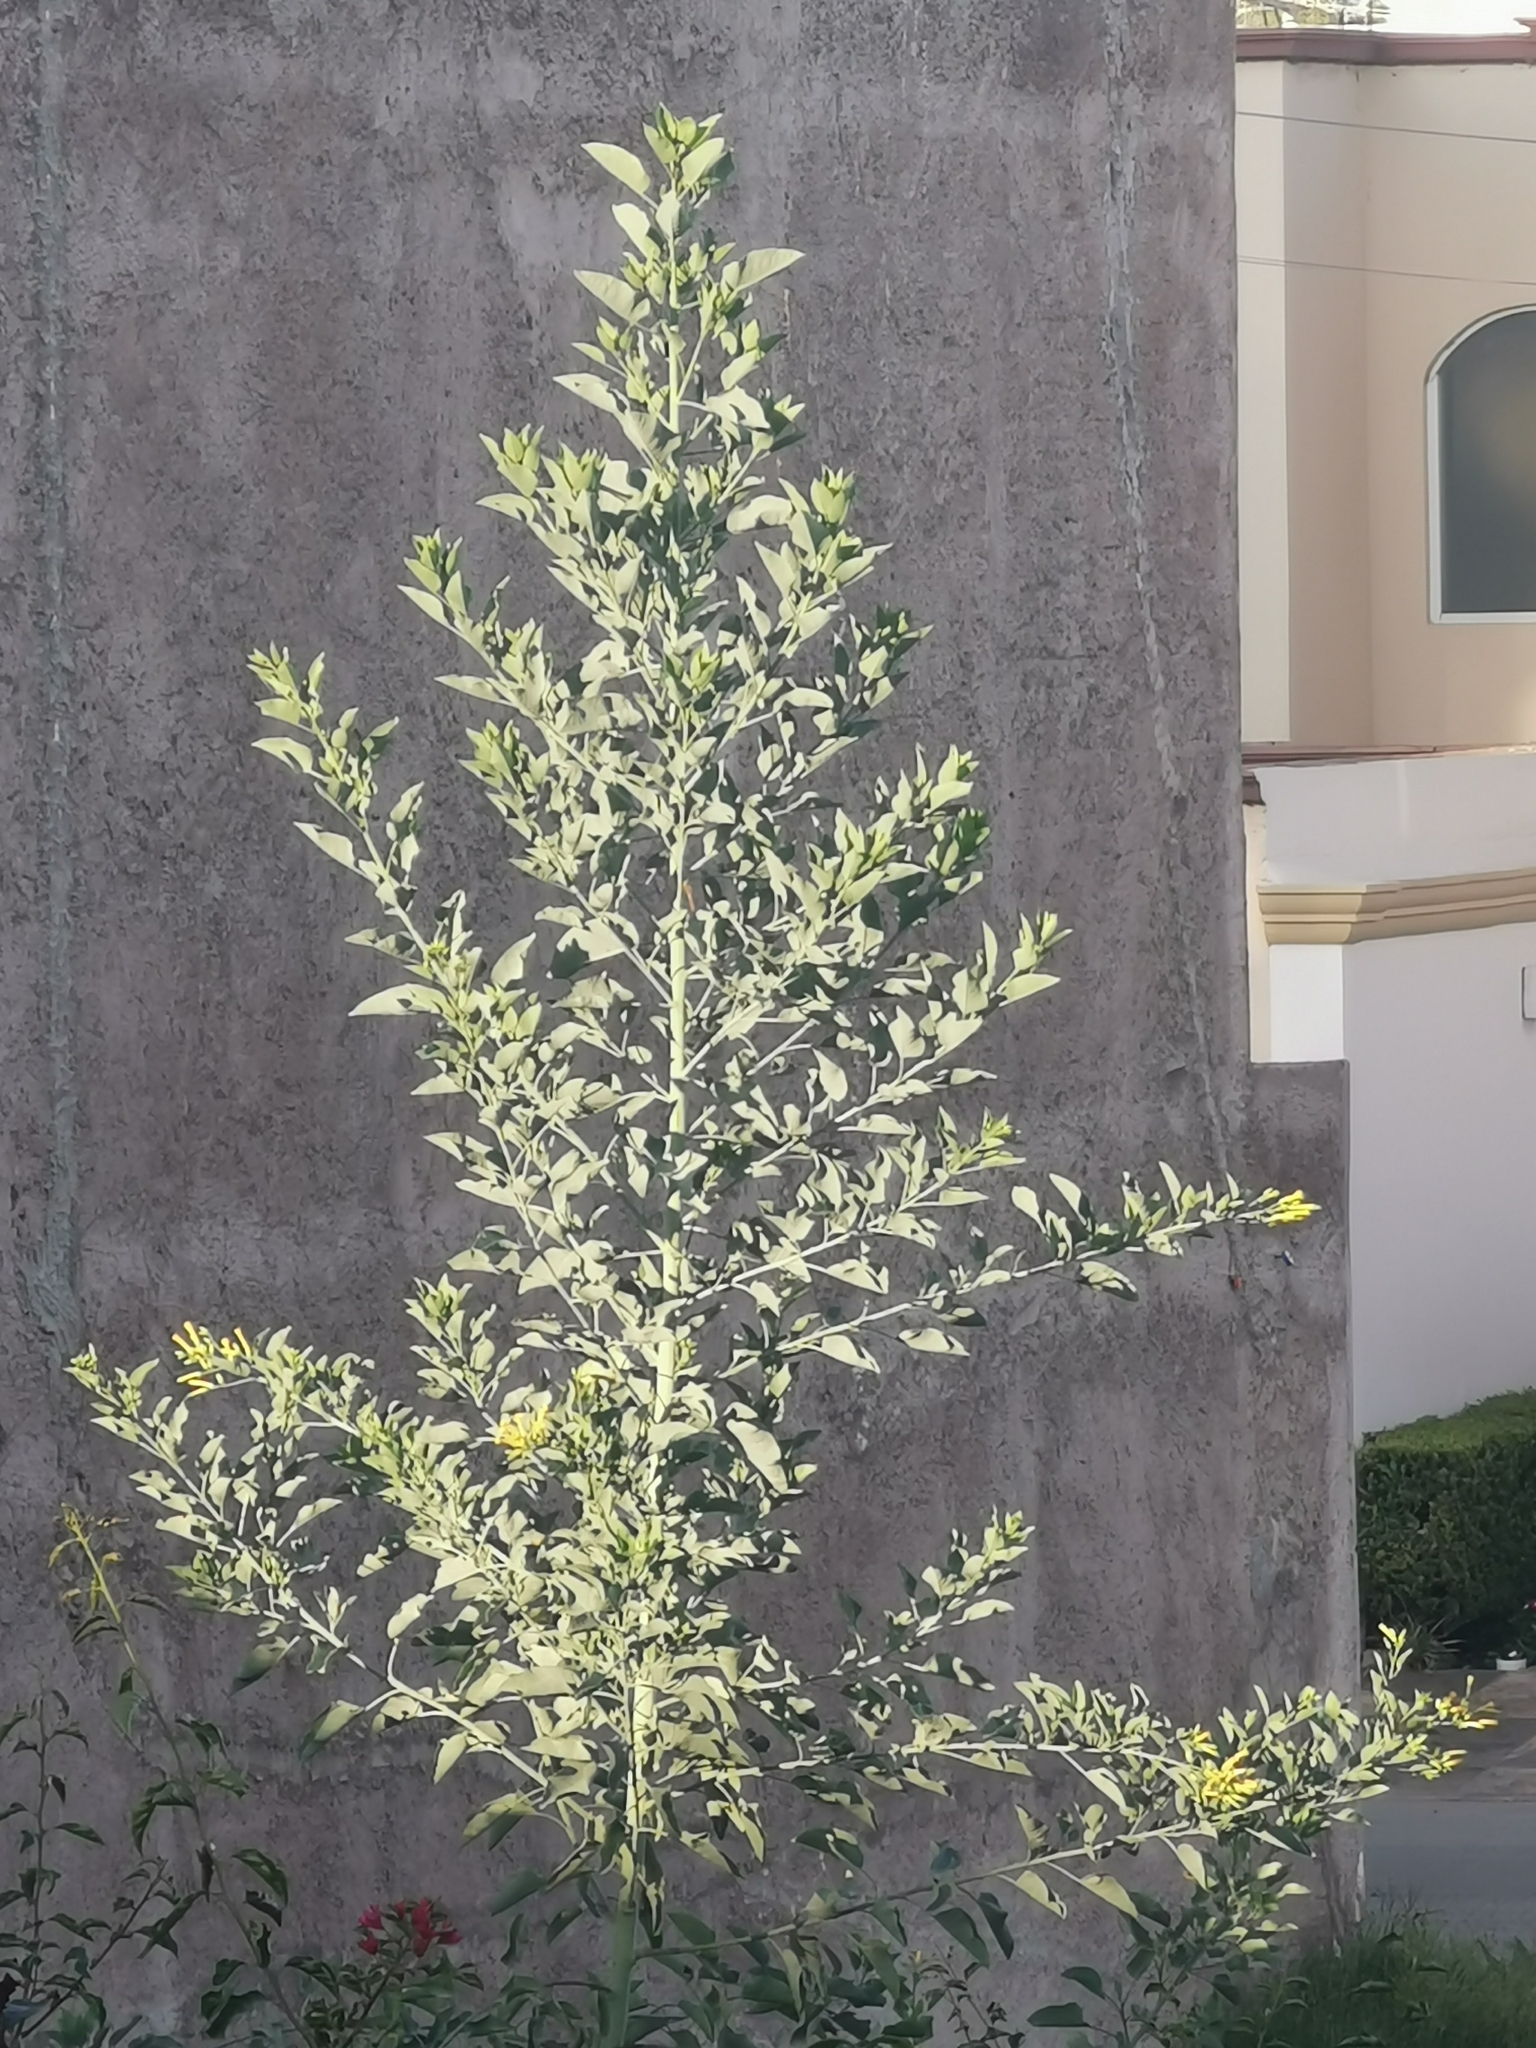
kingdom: Plantae
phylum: Tracheophyta
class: Magnoliopsida
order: Solanales
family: Solanaceae
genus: Nicotiana
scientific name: Nicotiana glauca
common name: Tree tobacco
